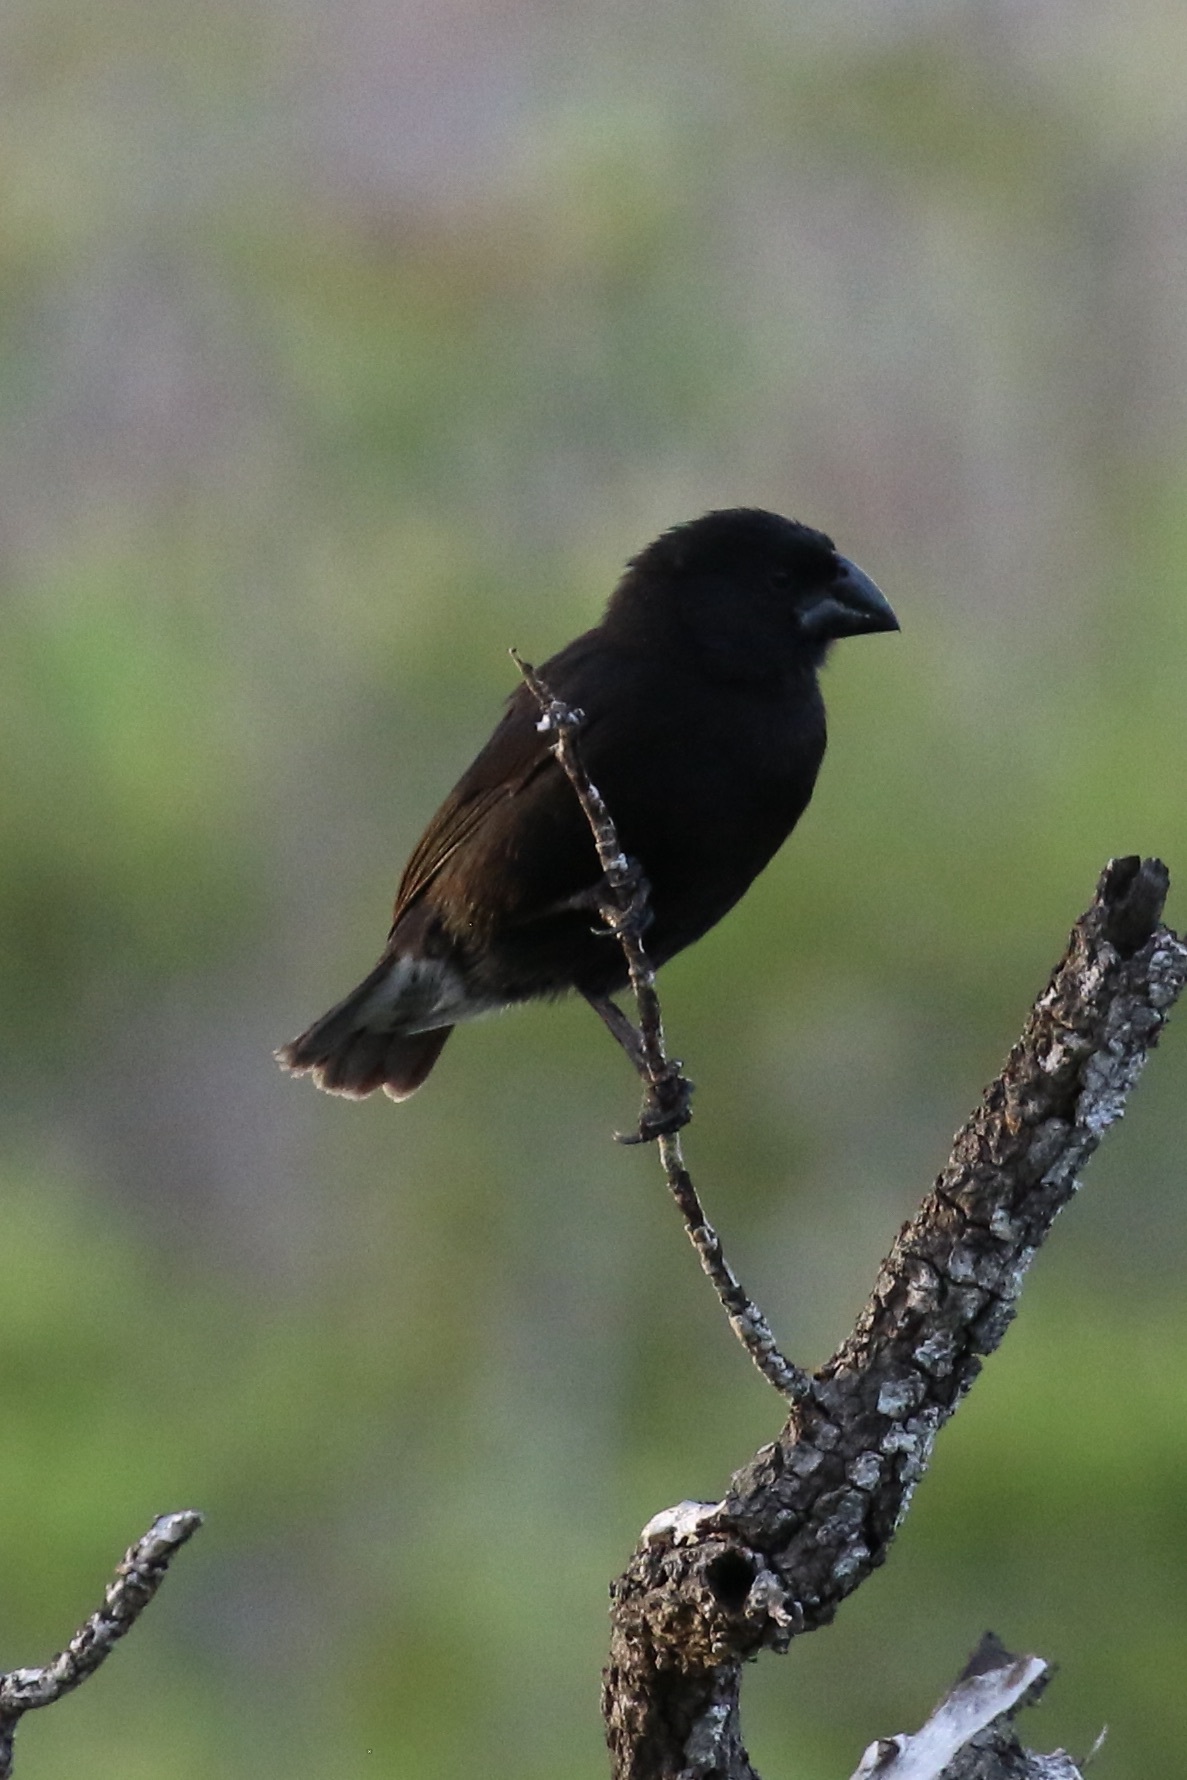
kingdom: Animalia
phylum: Chordata
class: Aves
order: Passeriformes
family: Thraupidae
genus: Geospiza
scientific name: Geospiza fortis
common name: Medium ground finch
